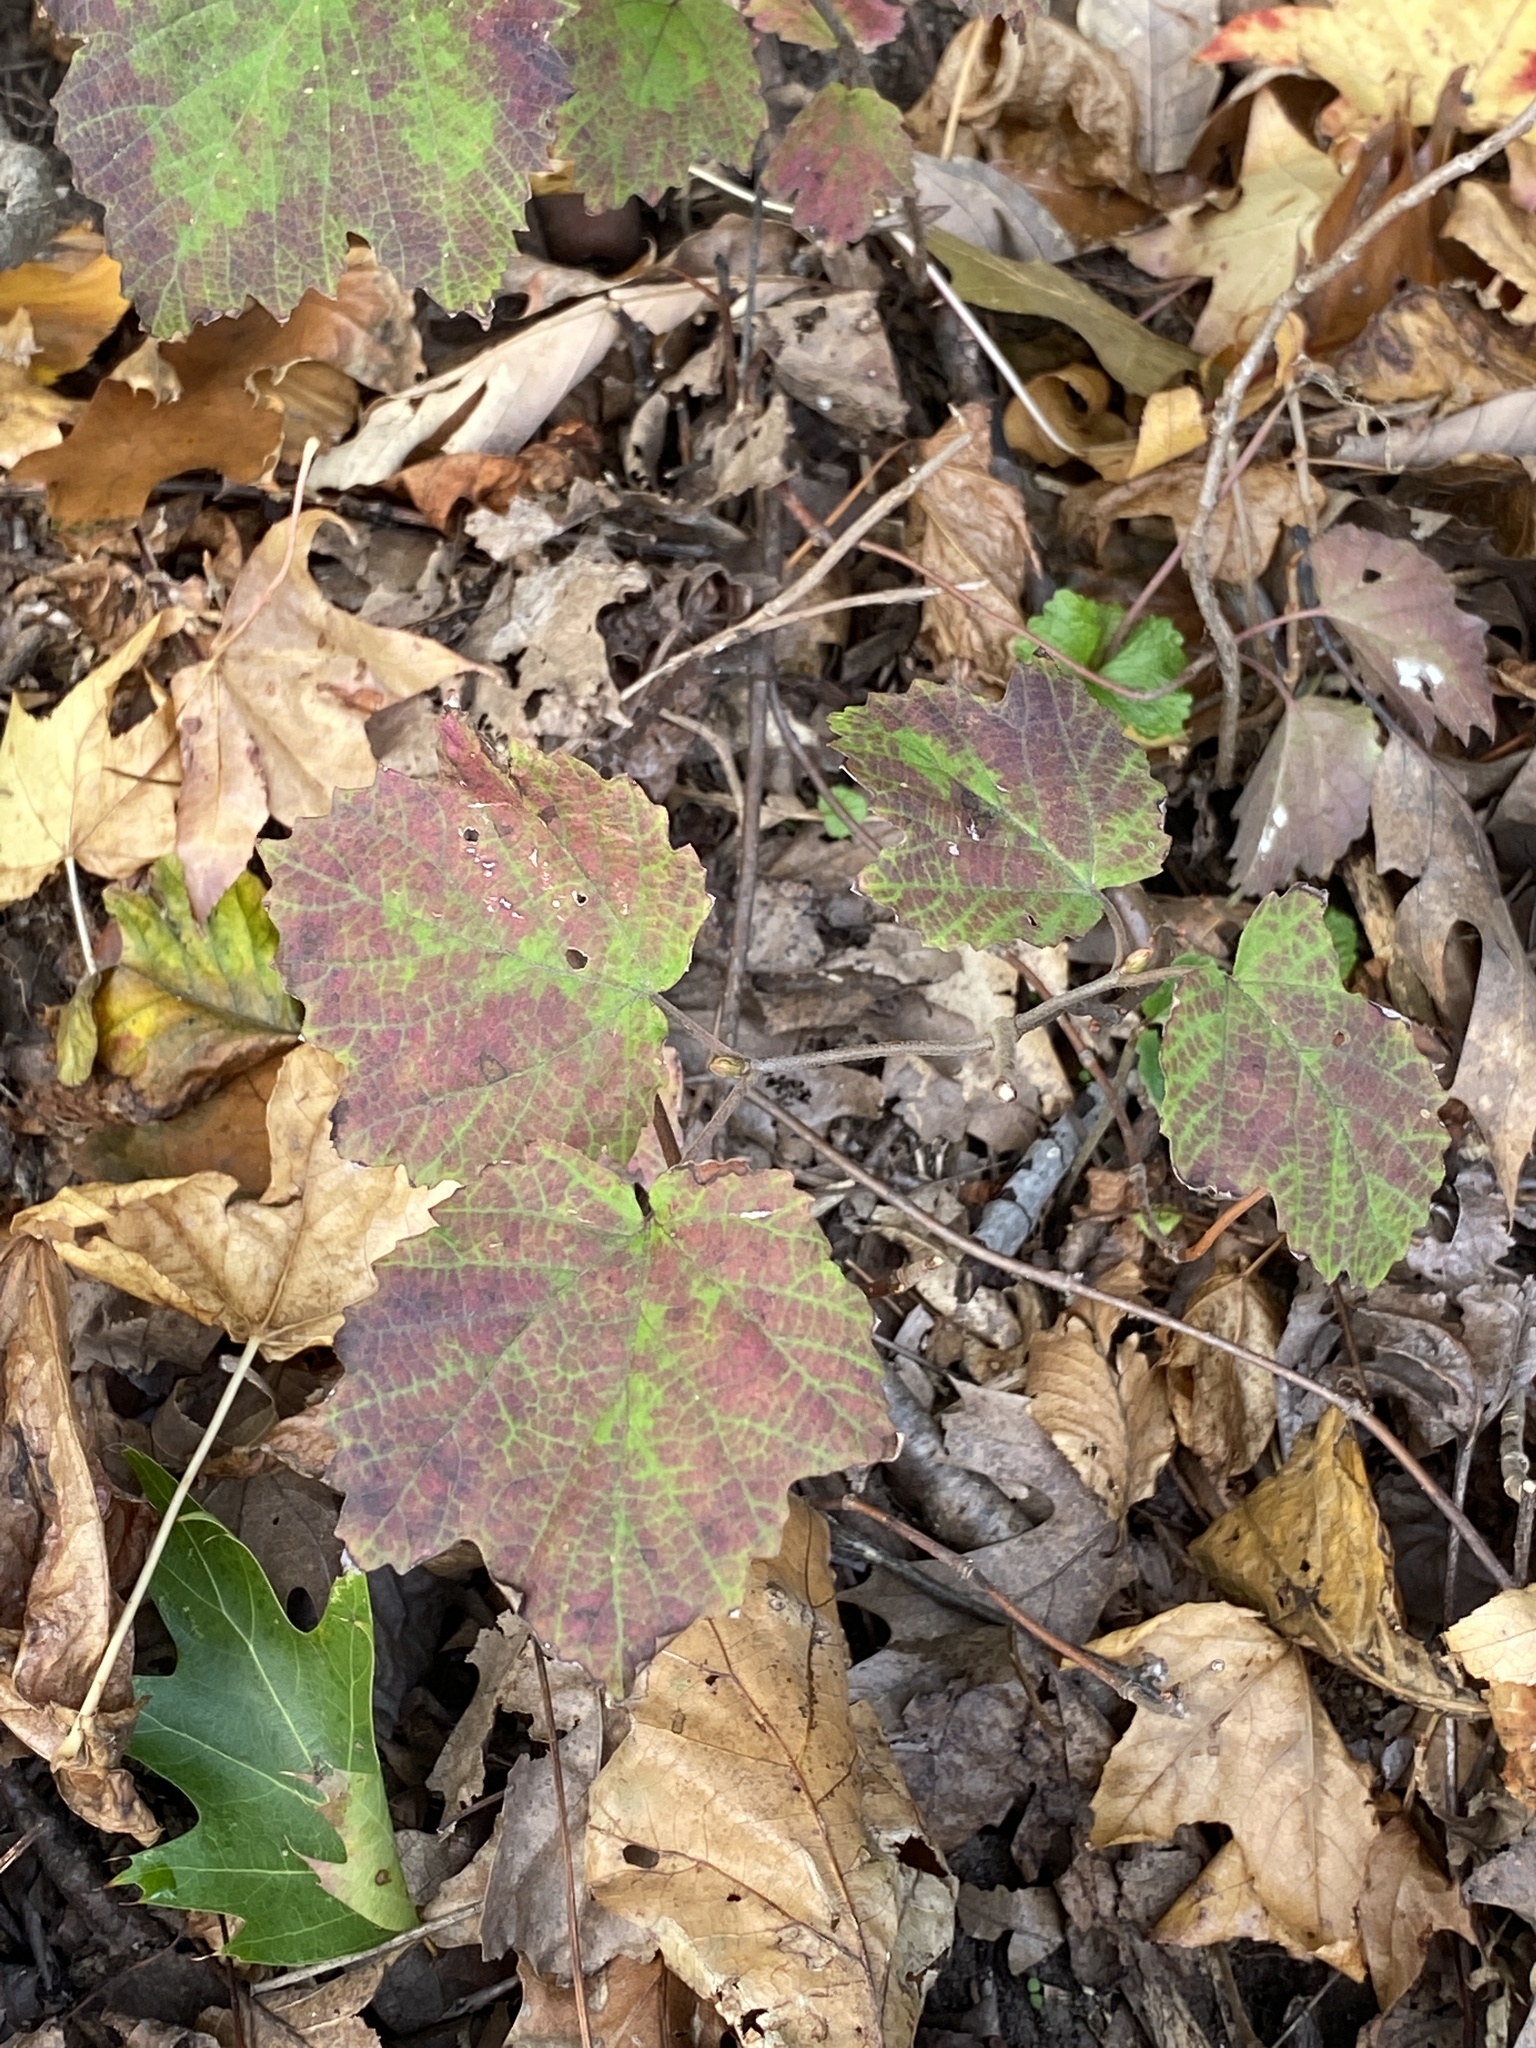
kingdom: Plantae
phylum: Tracheophyta
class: Magnoliopsida
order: Dipsacales
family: Viburnaceae
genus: Viburnum
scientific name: Viburnum acerifolium
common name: Dockmackie
